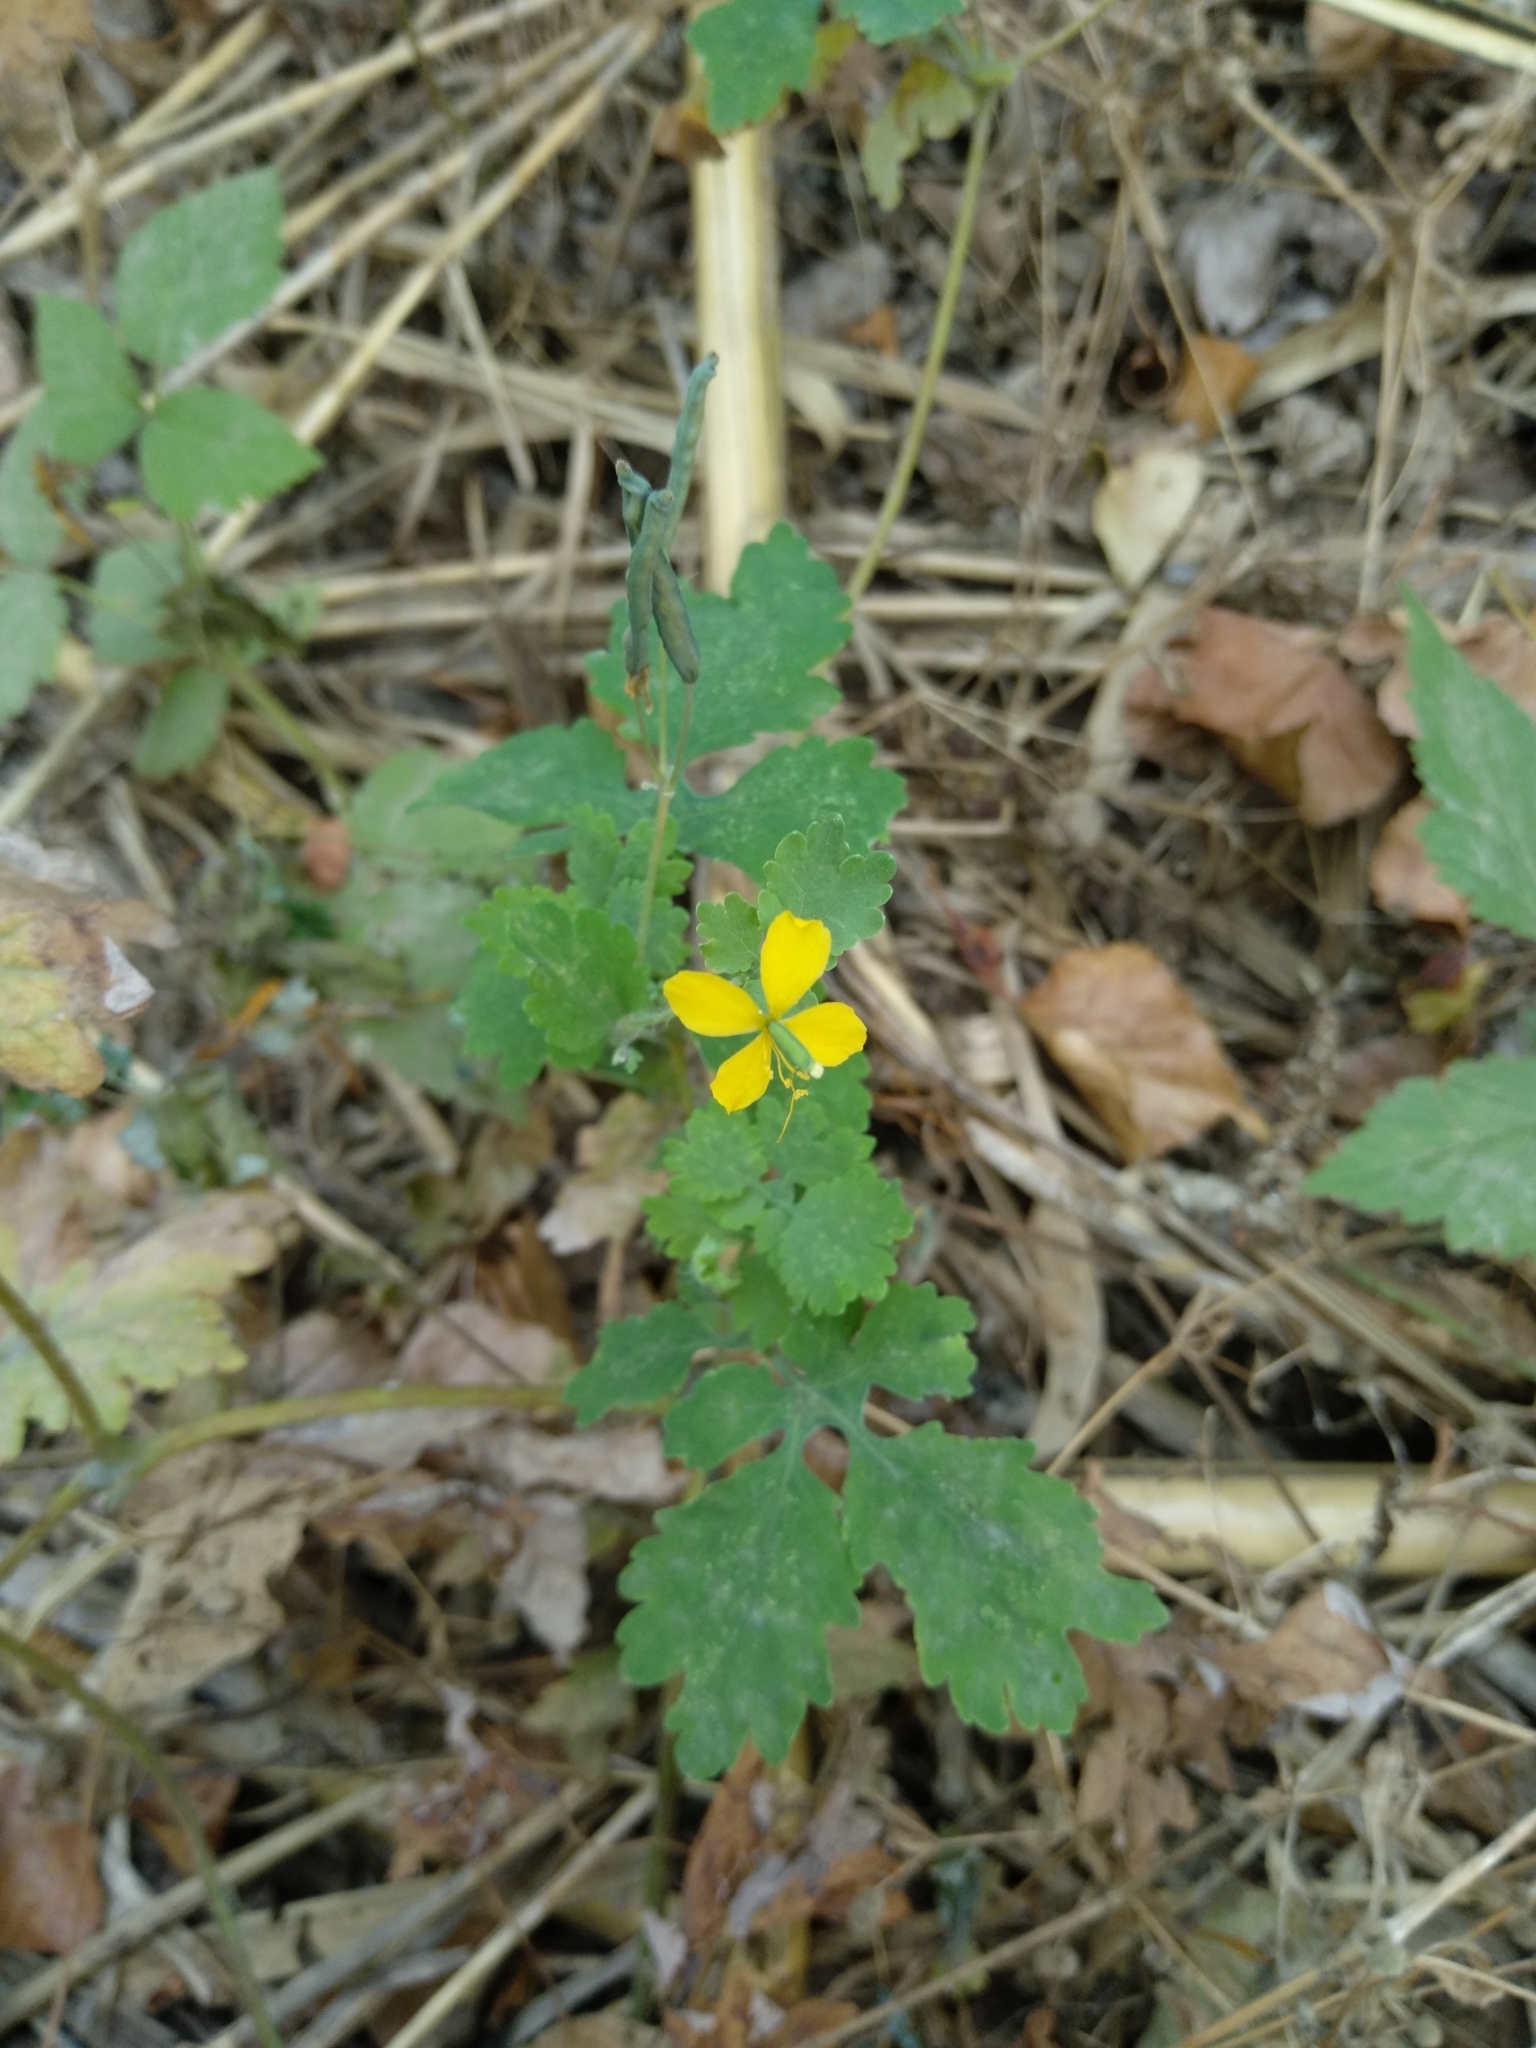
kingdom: Plantae
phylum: Tracheophyta
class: Magnoliopsida
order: Ranunculales
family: Papaveraceae
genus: Chelidonium
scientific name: Chelidonium majus
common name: Greater celandine
